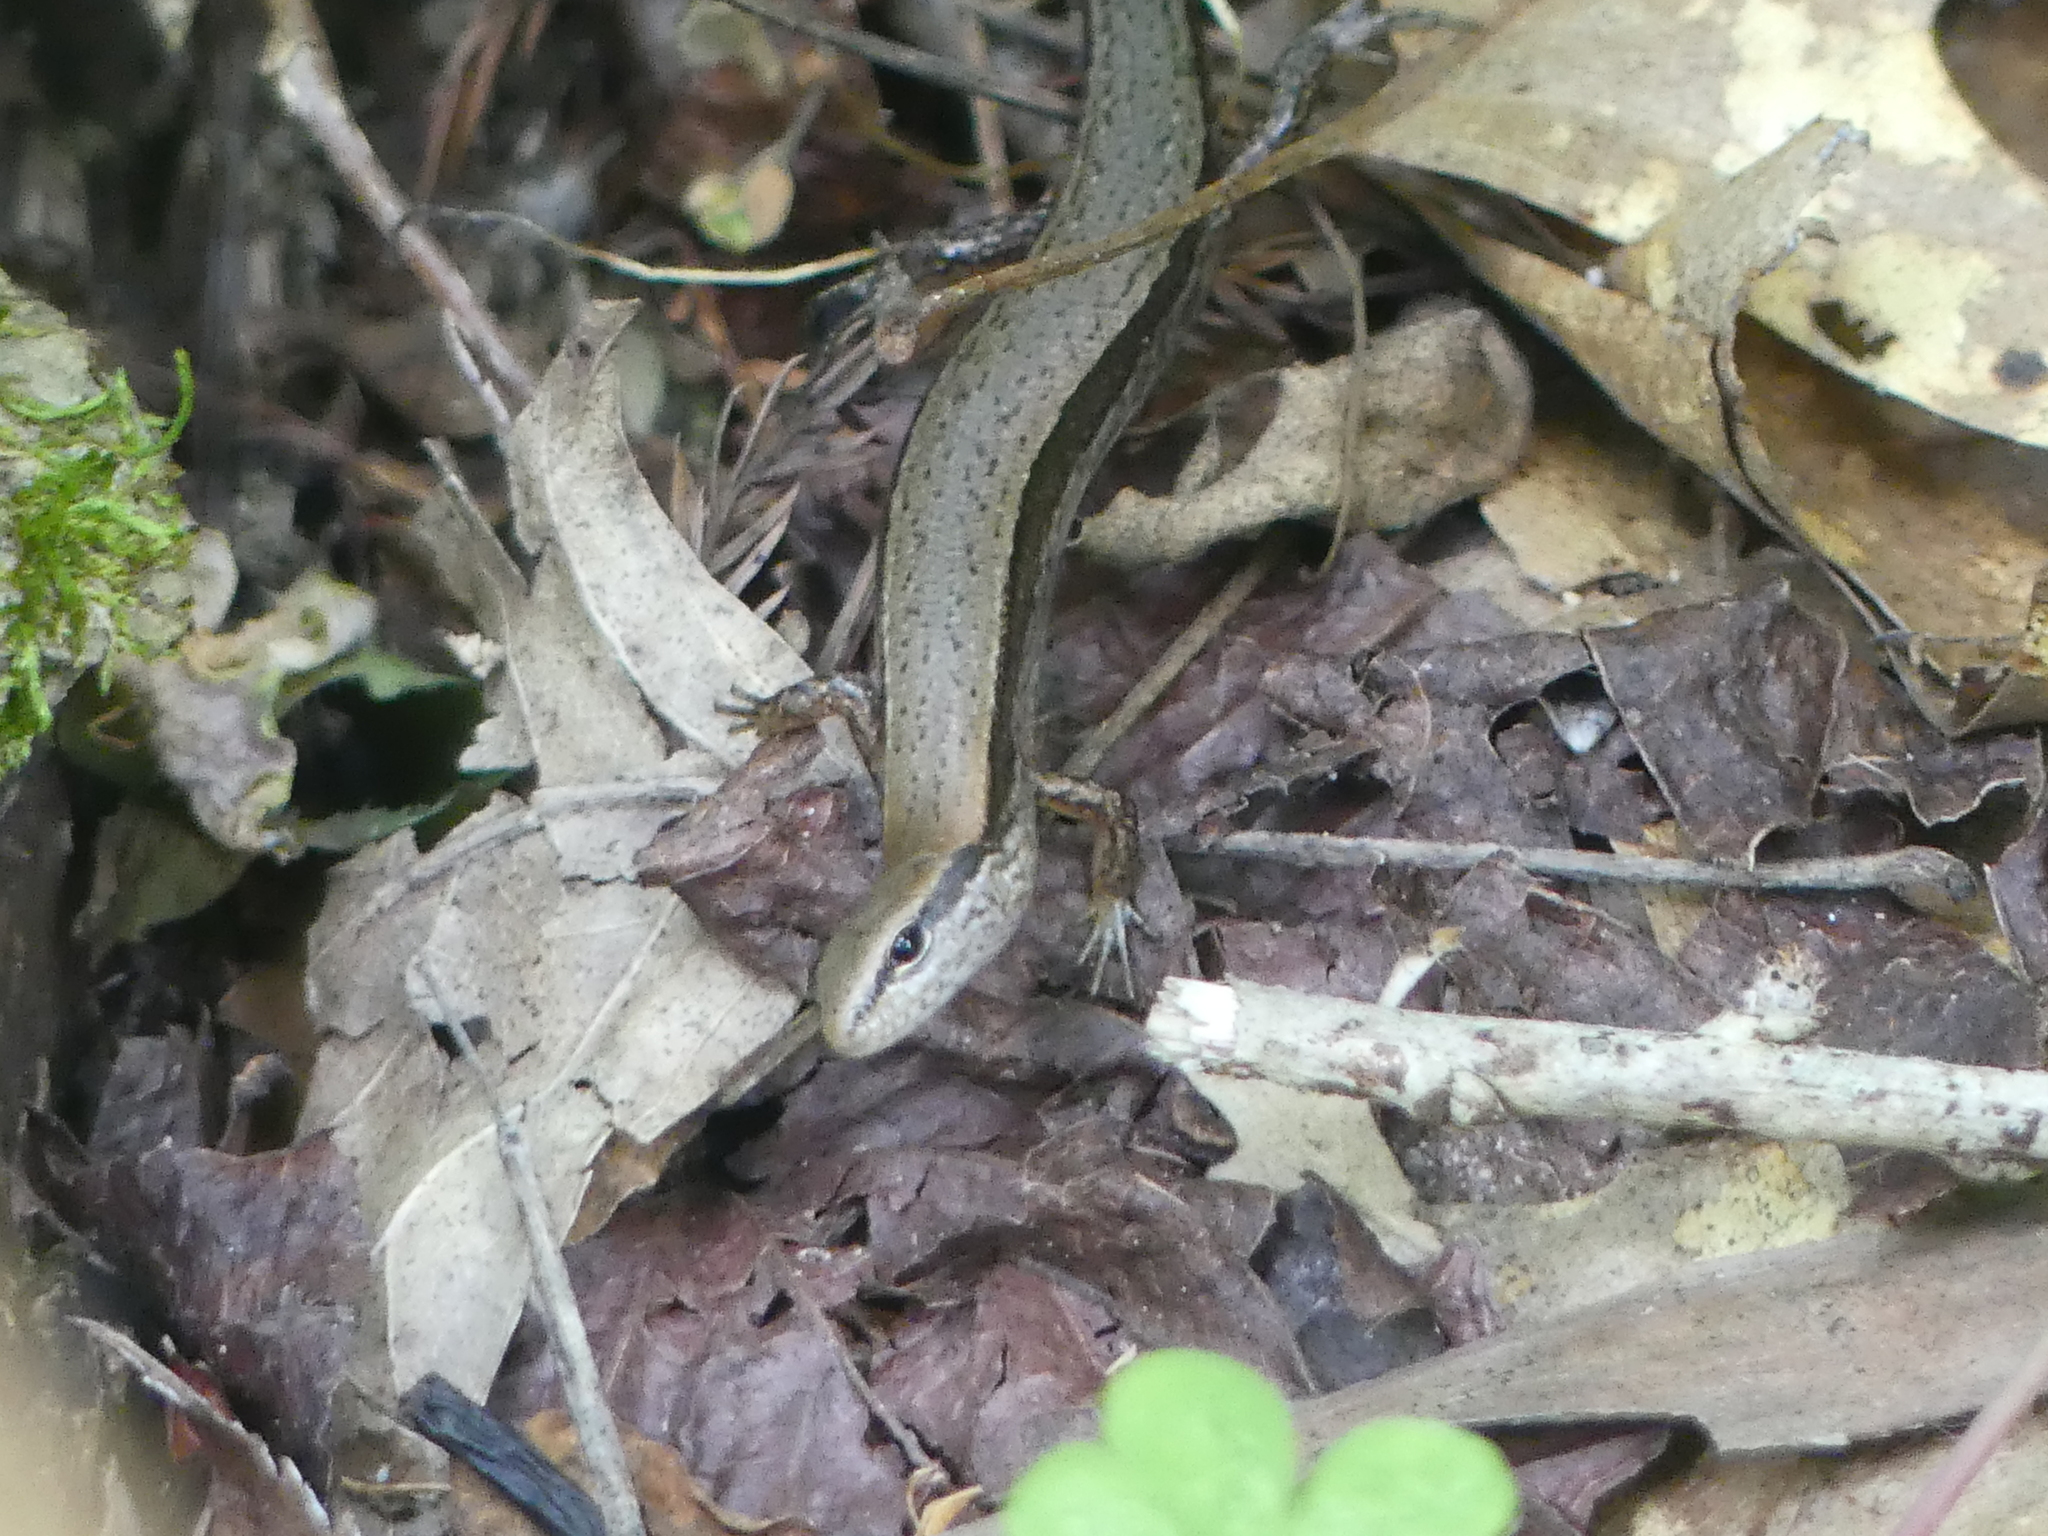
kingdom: Animalia
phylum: Chordata
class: Squamata
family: Scincidae
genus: Scincella
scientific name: Scincella lateralis
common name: Ground skink
